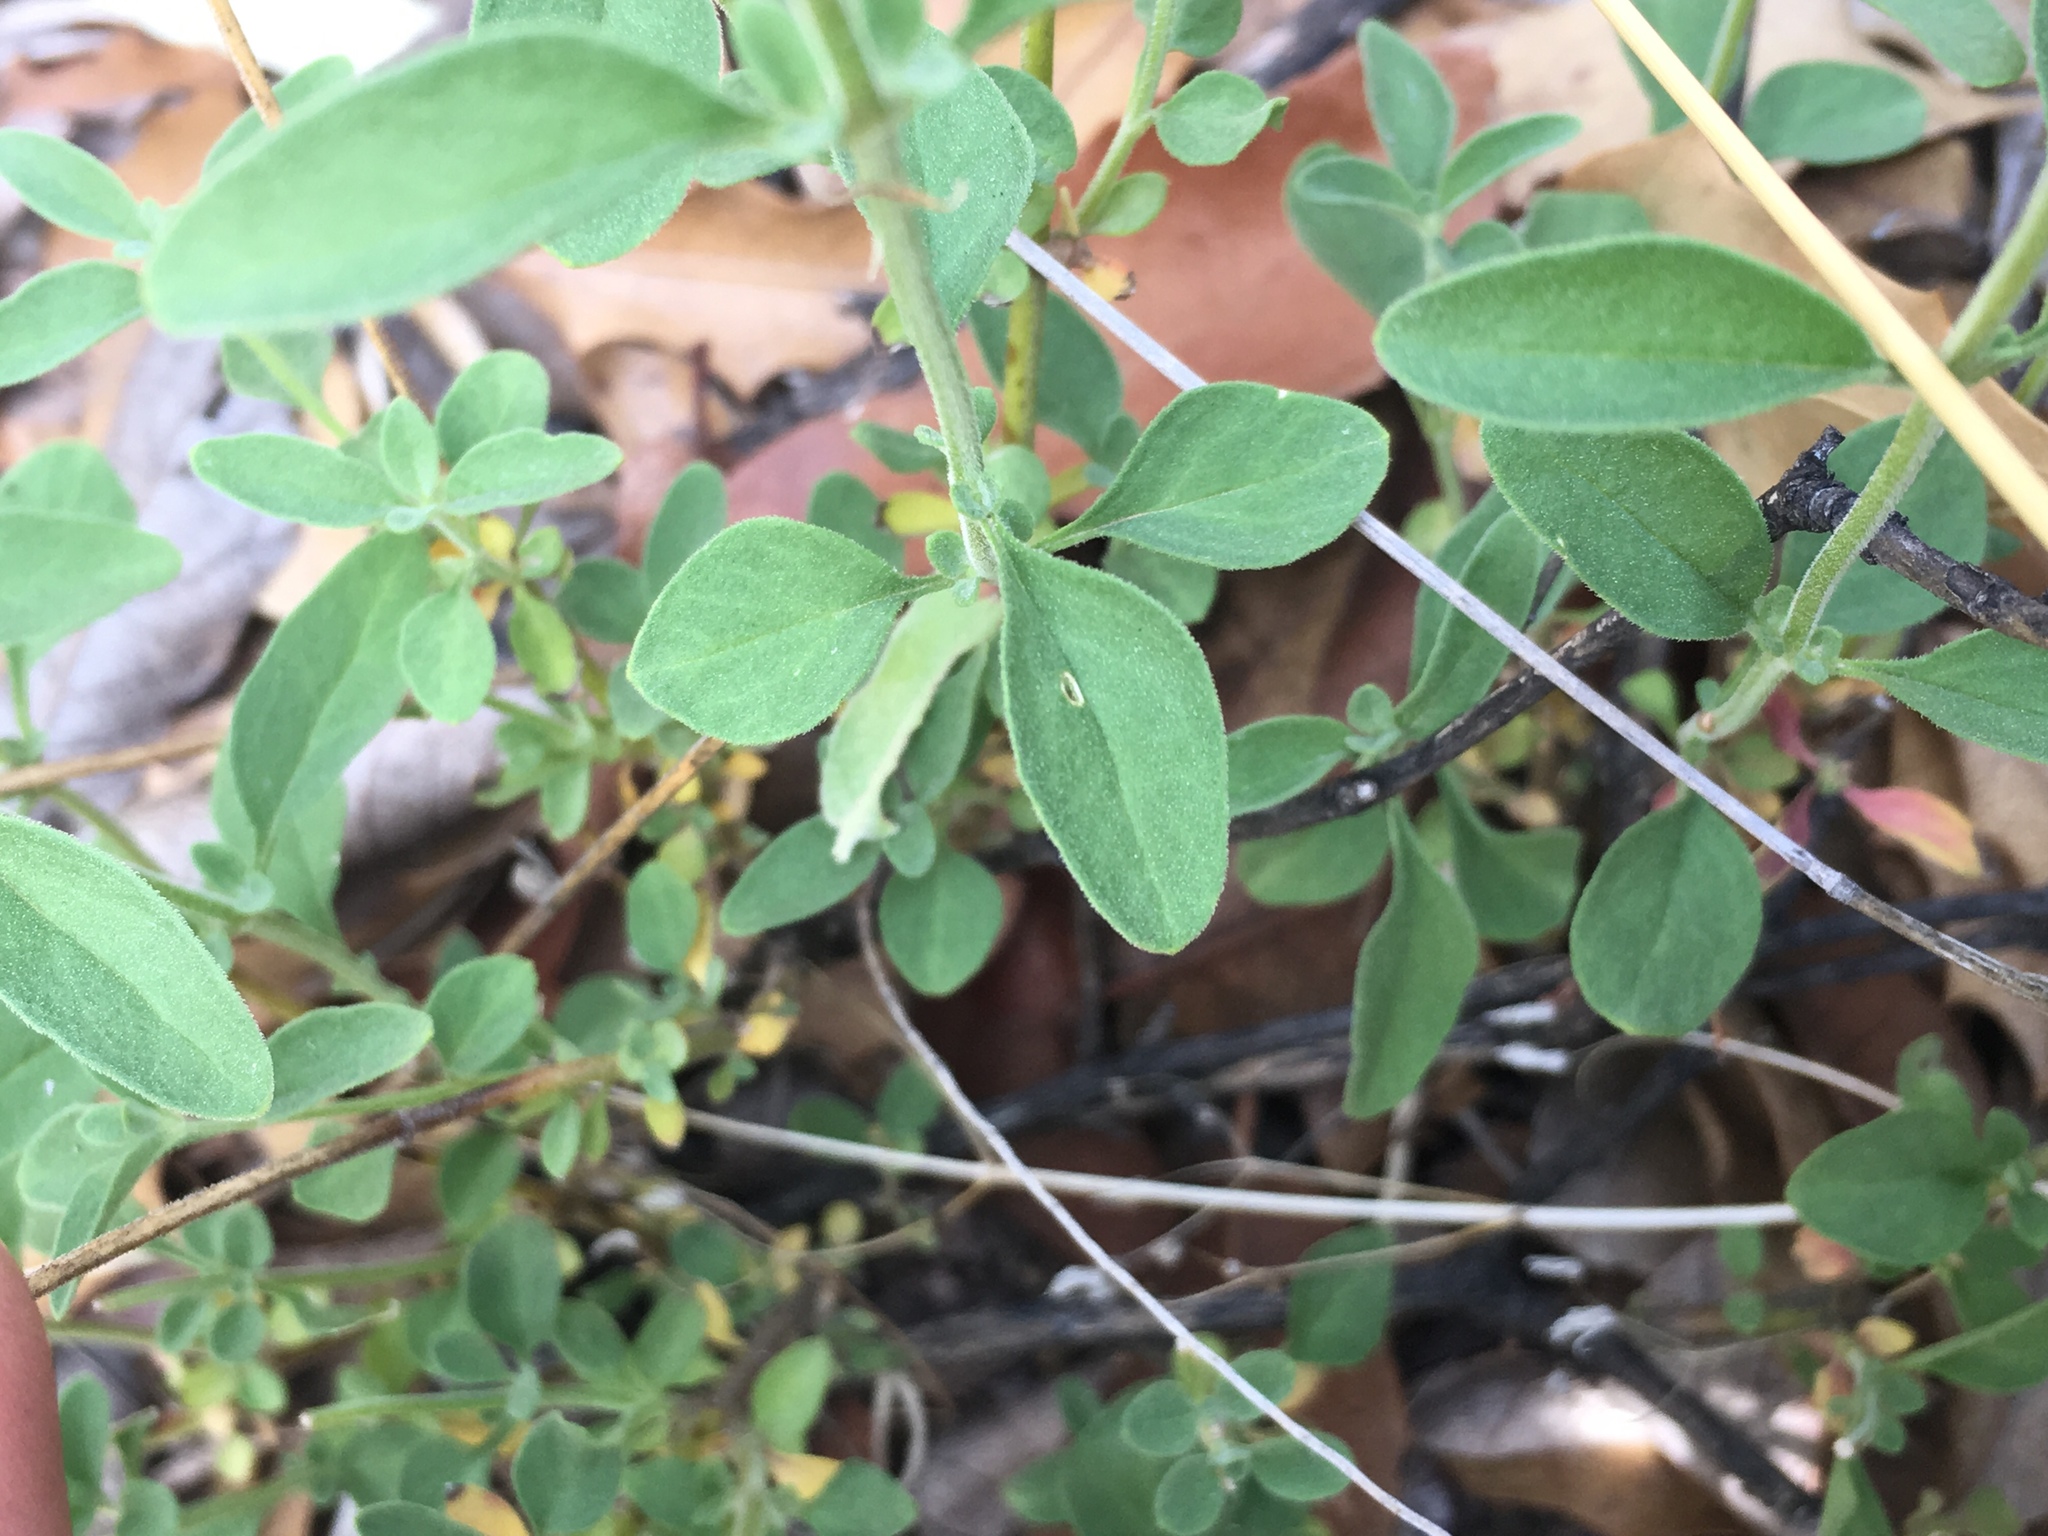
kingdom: Plantae
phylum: Tracheophyta
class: Magnoliopsida
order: Lamiales
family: Lamiaceae
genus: Trichostema
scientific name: Trichostema arizonicum
